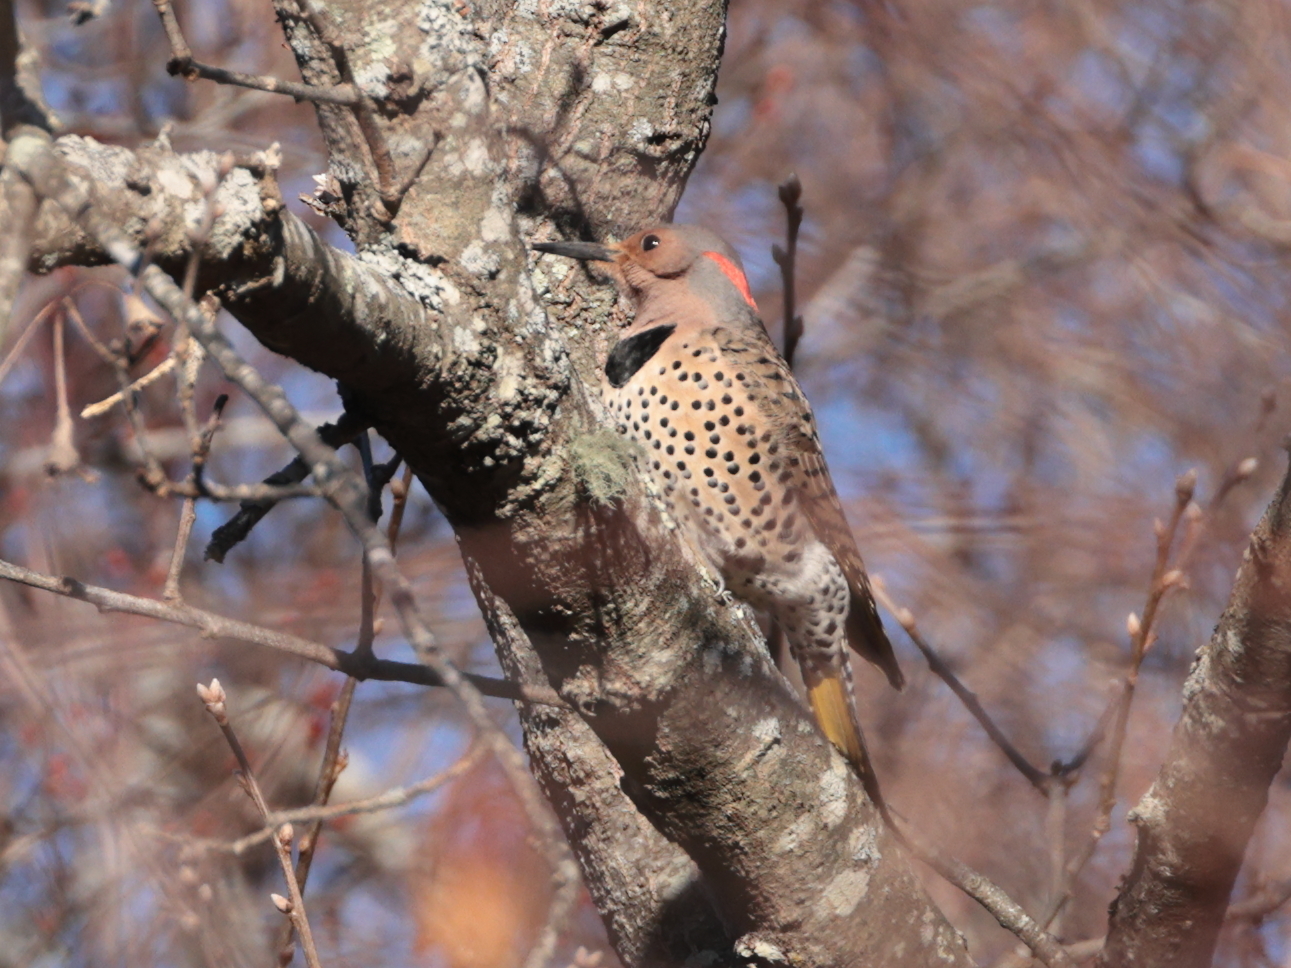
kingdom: Animalia
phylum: Chordata
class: Aves
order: Piciformes
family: Picidae
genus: Colaptes
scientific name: Colaptes auratus
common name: Northern flicker
